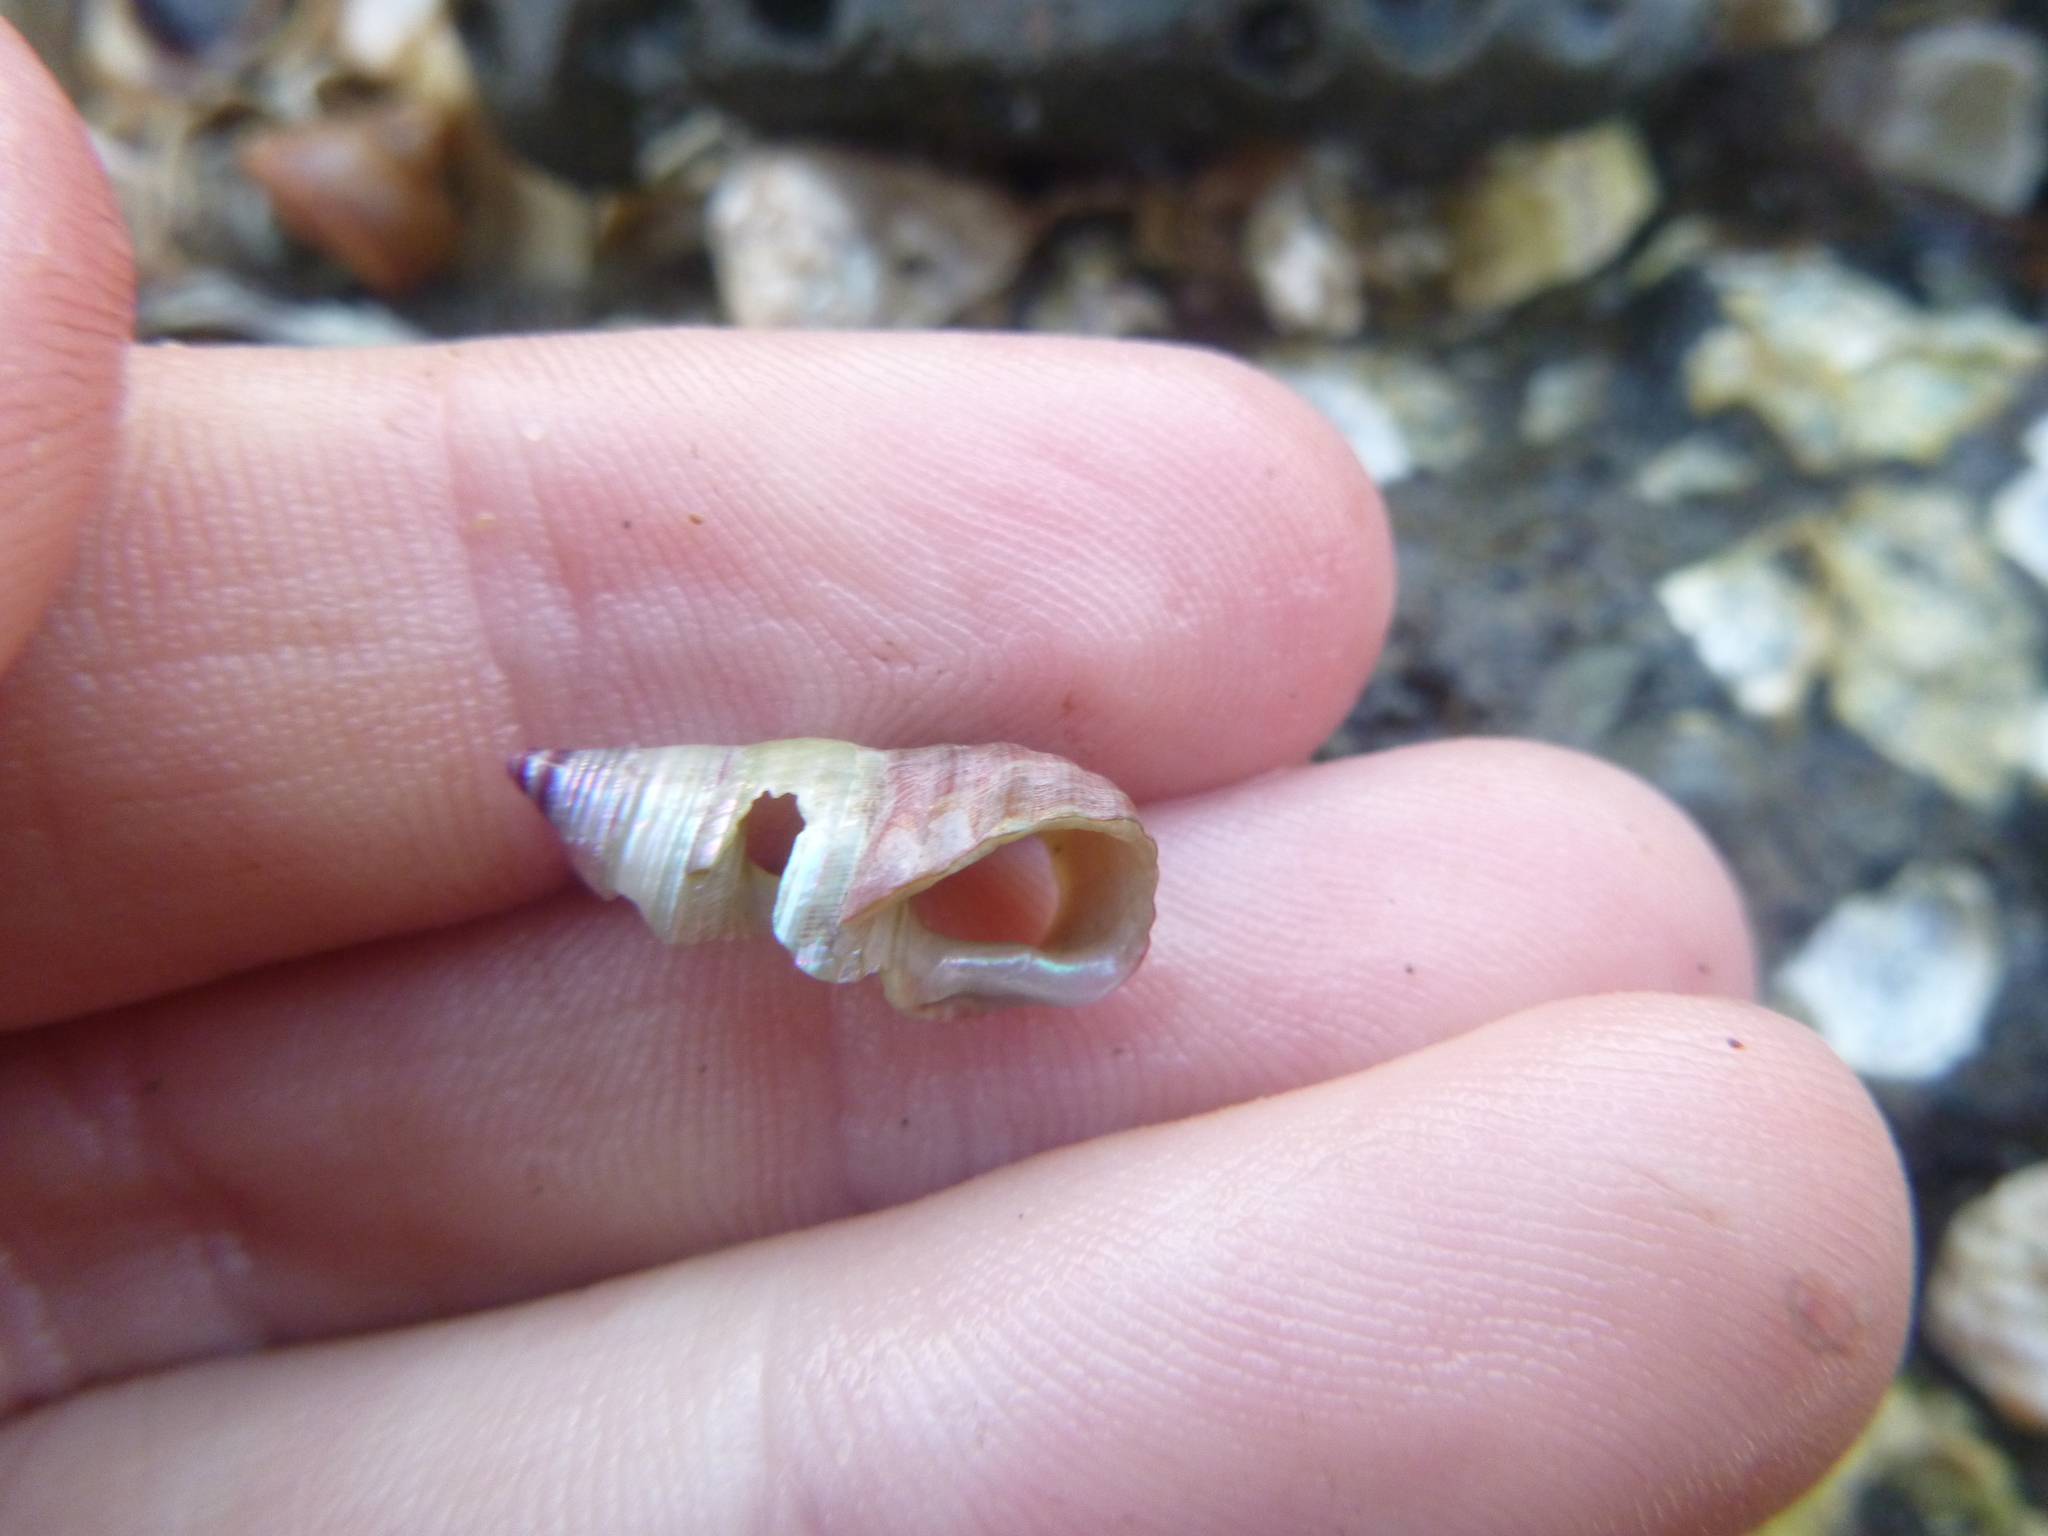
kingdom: Animalia
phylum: Mollusca
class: Gastropoda
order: Trochida
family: Trochidae
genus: Micrelenchus
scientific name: Micrelenchus purpureus
